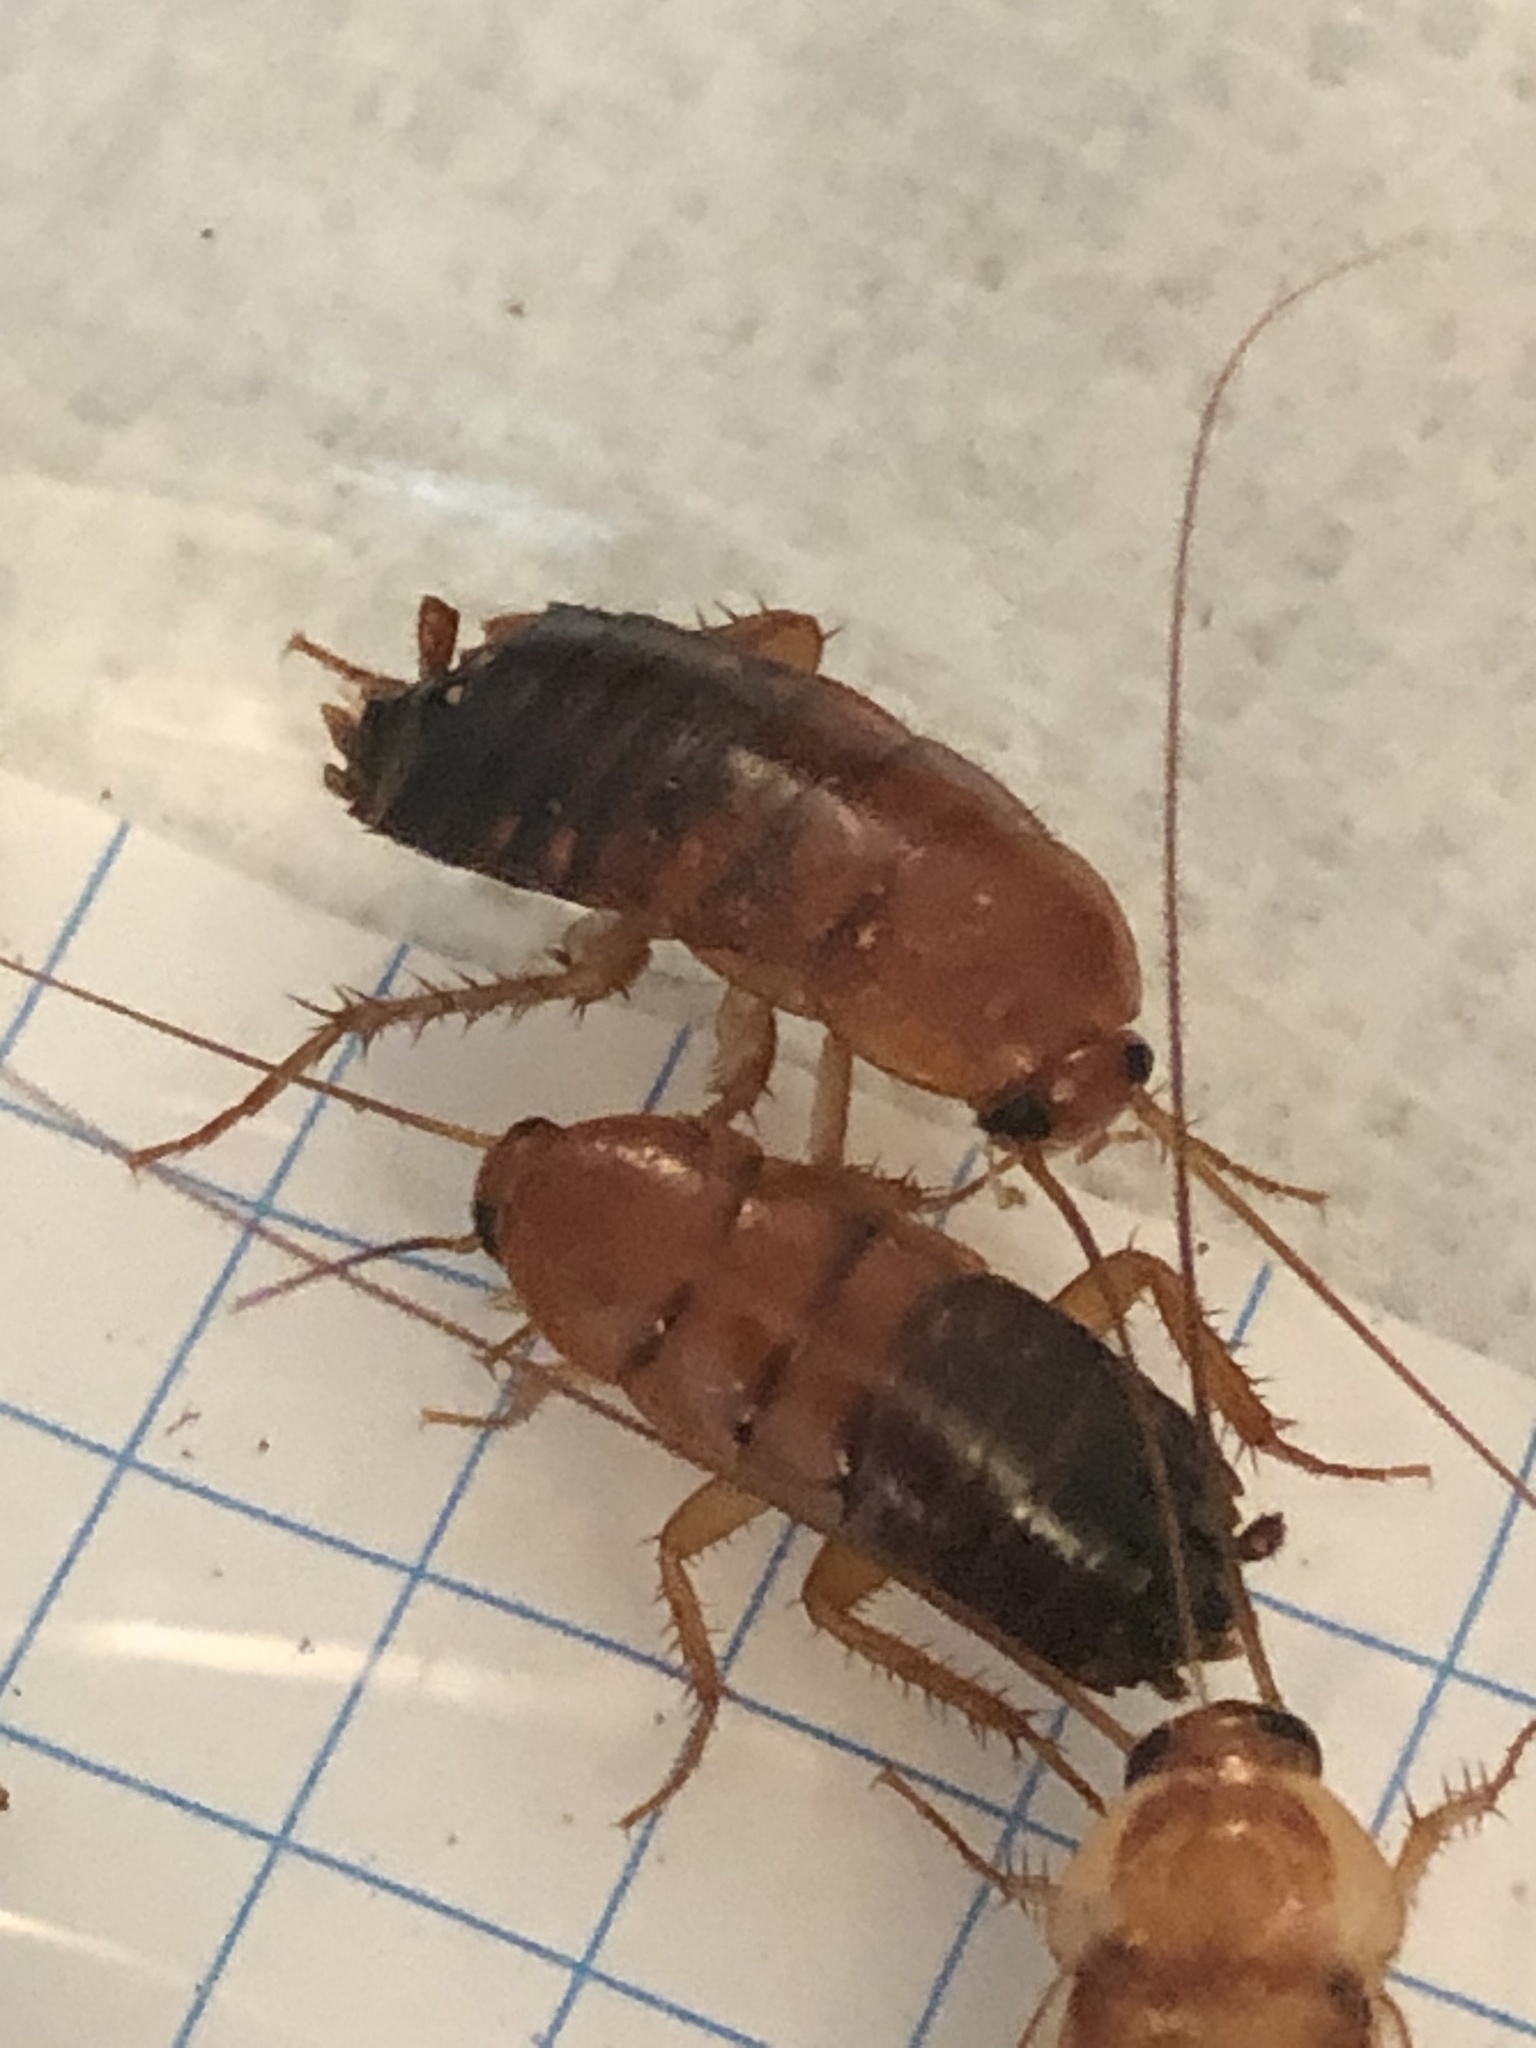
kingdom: Animalia
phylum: Arthropoda
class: Insecta
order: Blattodea
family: Blattidae
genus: Periplaneta
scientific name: Periplaneta lateralis
